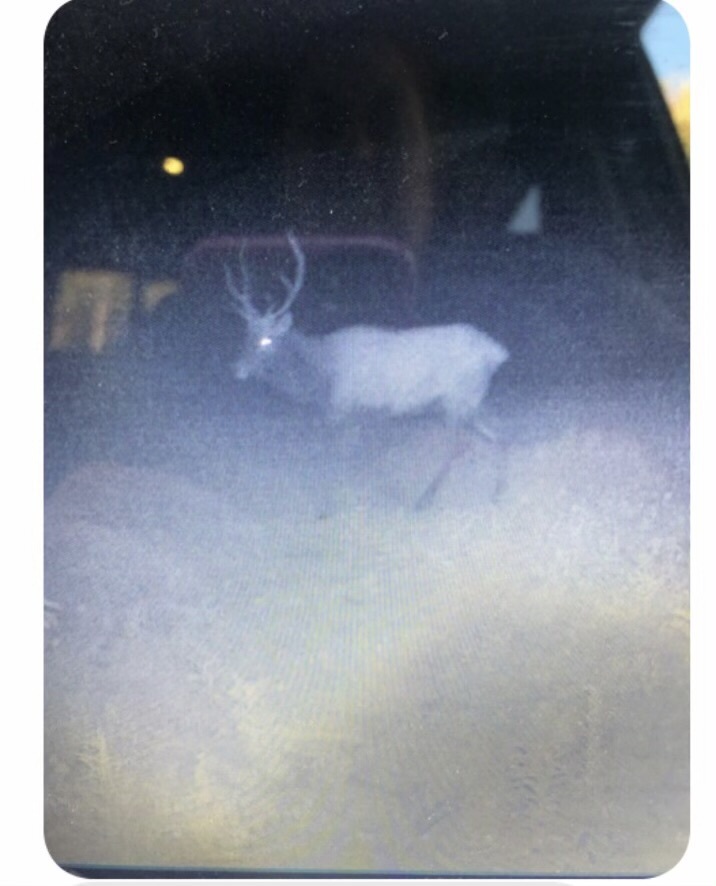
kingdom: Animalia
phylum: Chordata
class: Mammalia
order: Artiodactyla
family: Cervidae
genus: Cervus
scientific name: Cervus elaphus
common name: Red deer
